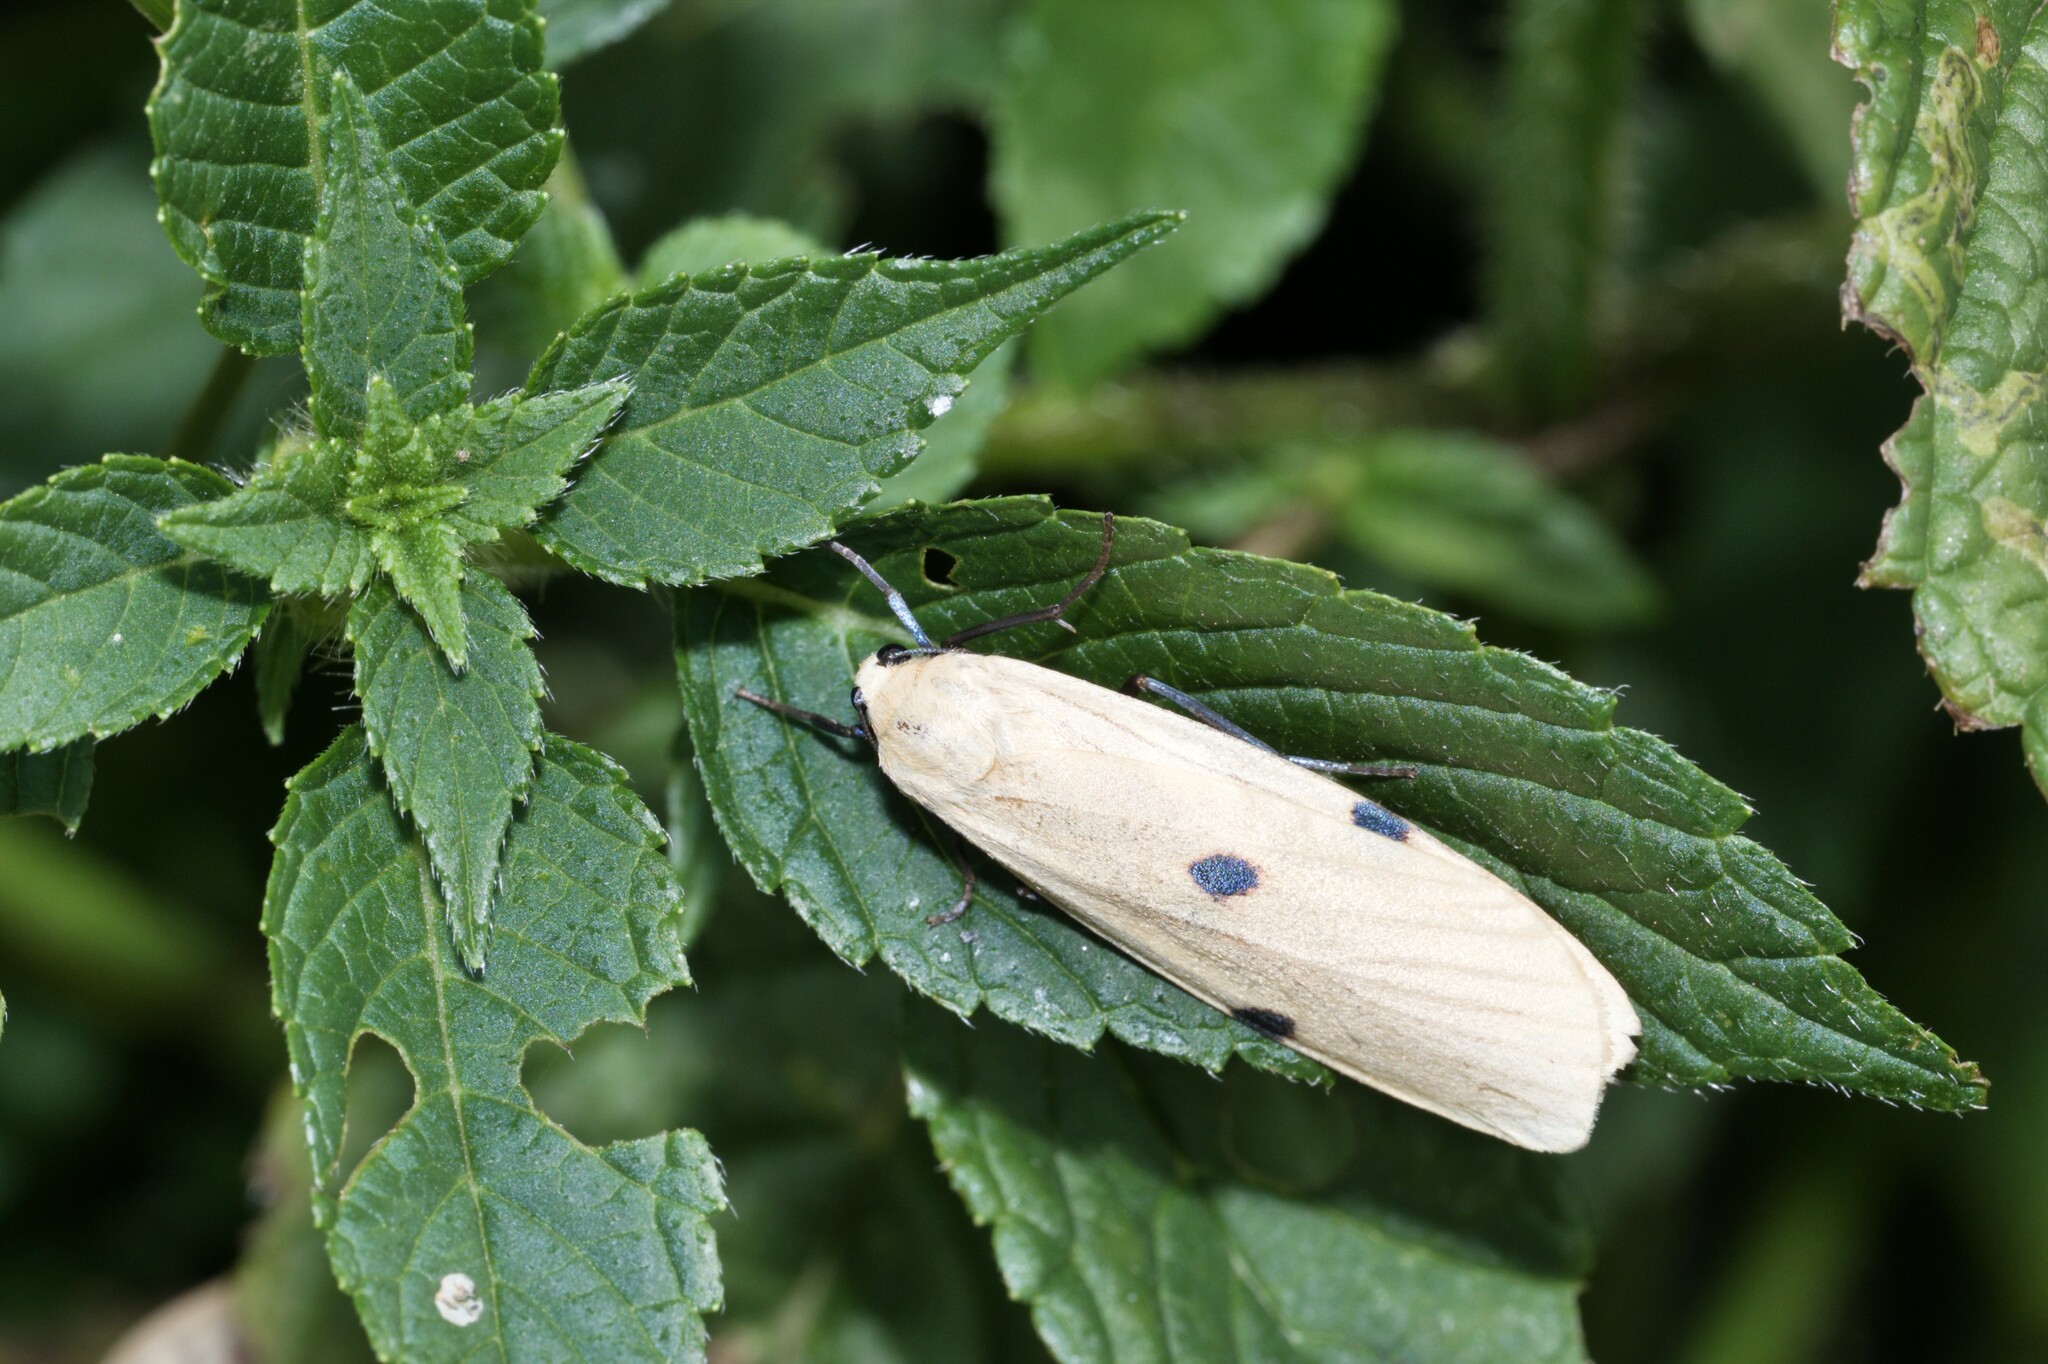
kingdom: Animalia
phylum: Arthropoda
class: Insecta
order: Lepidoptera
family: Erebidae
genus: Lithosia
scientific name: Lithosia quadra
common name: Four-spotted footman
